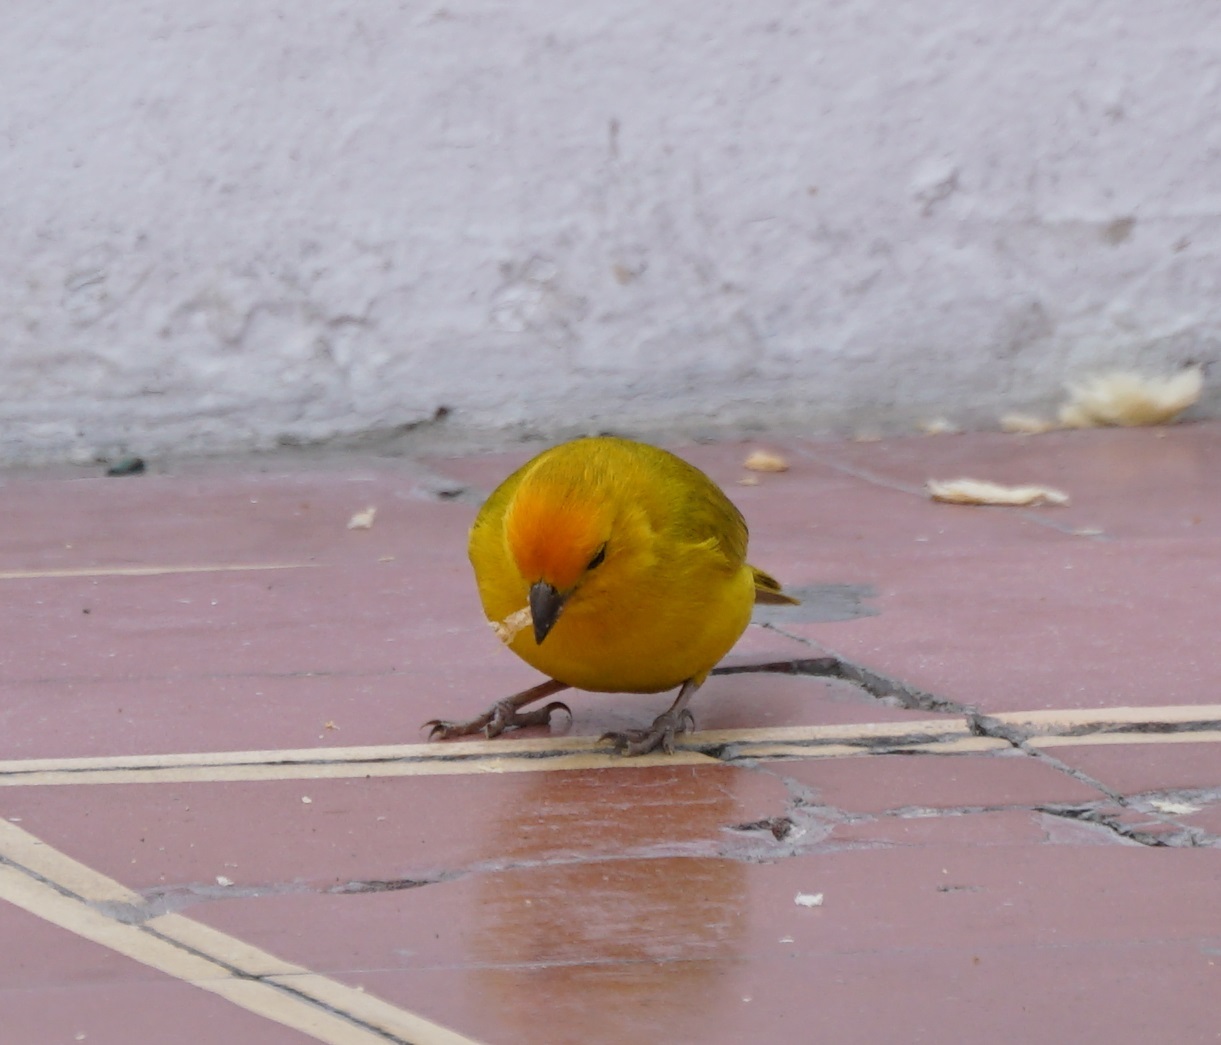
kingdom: Animalia
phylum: Chordata
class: Aves
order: Passeriformes
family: Thraupidae
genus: Sicalis
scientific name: Sicalis flaveola
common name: Saffron finch
